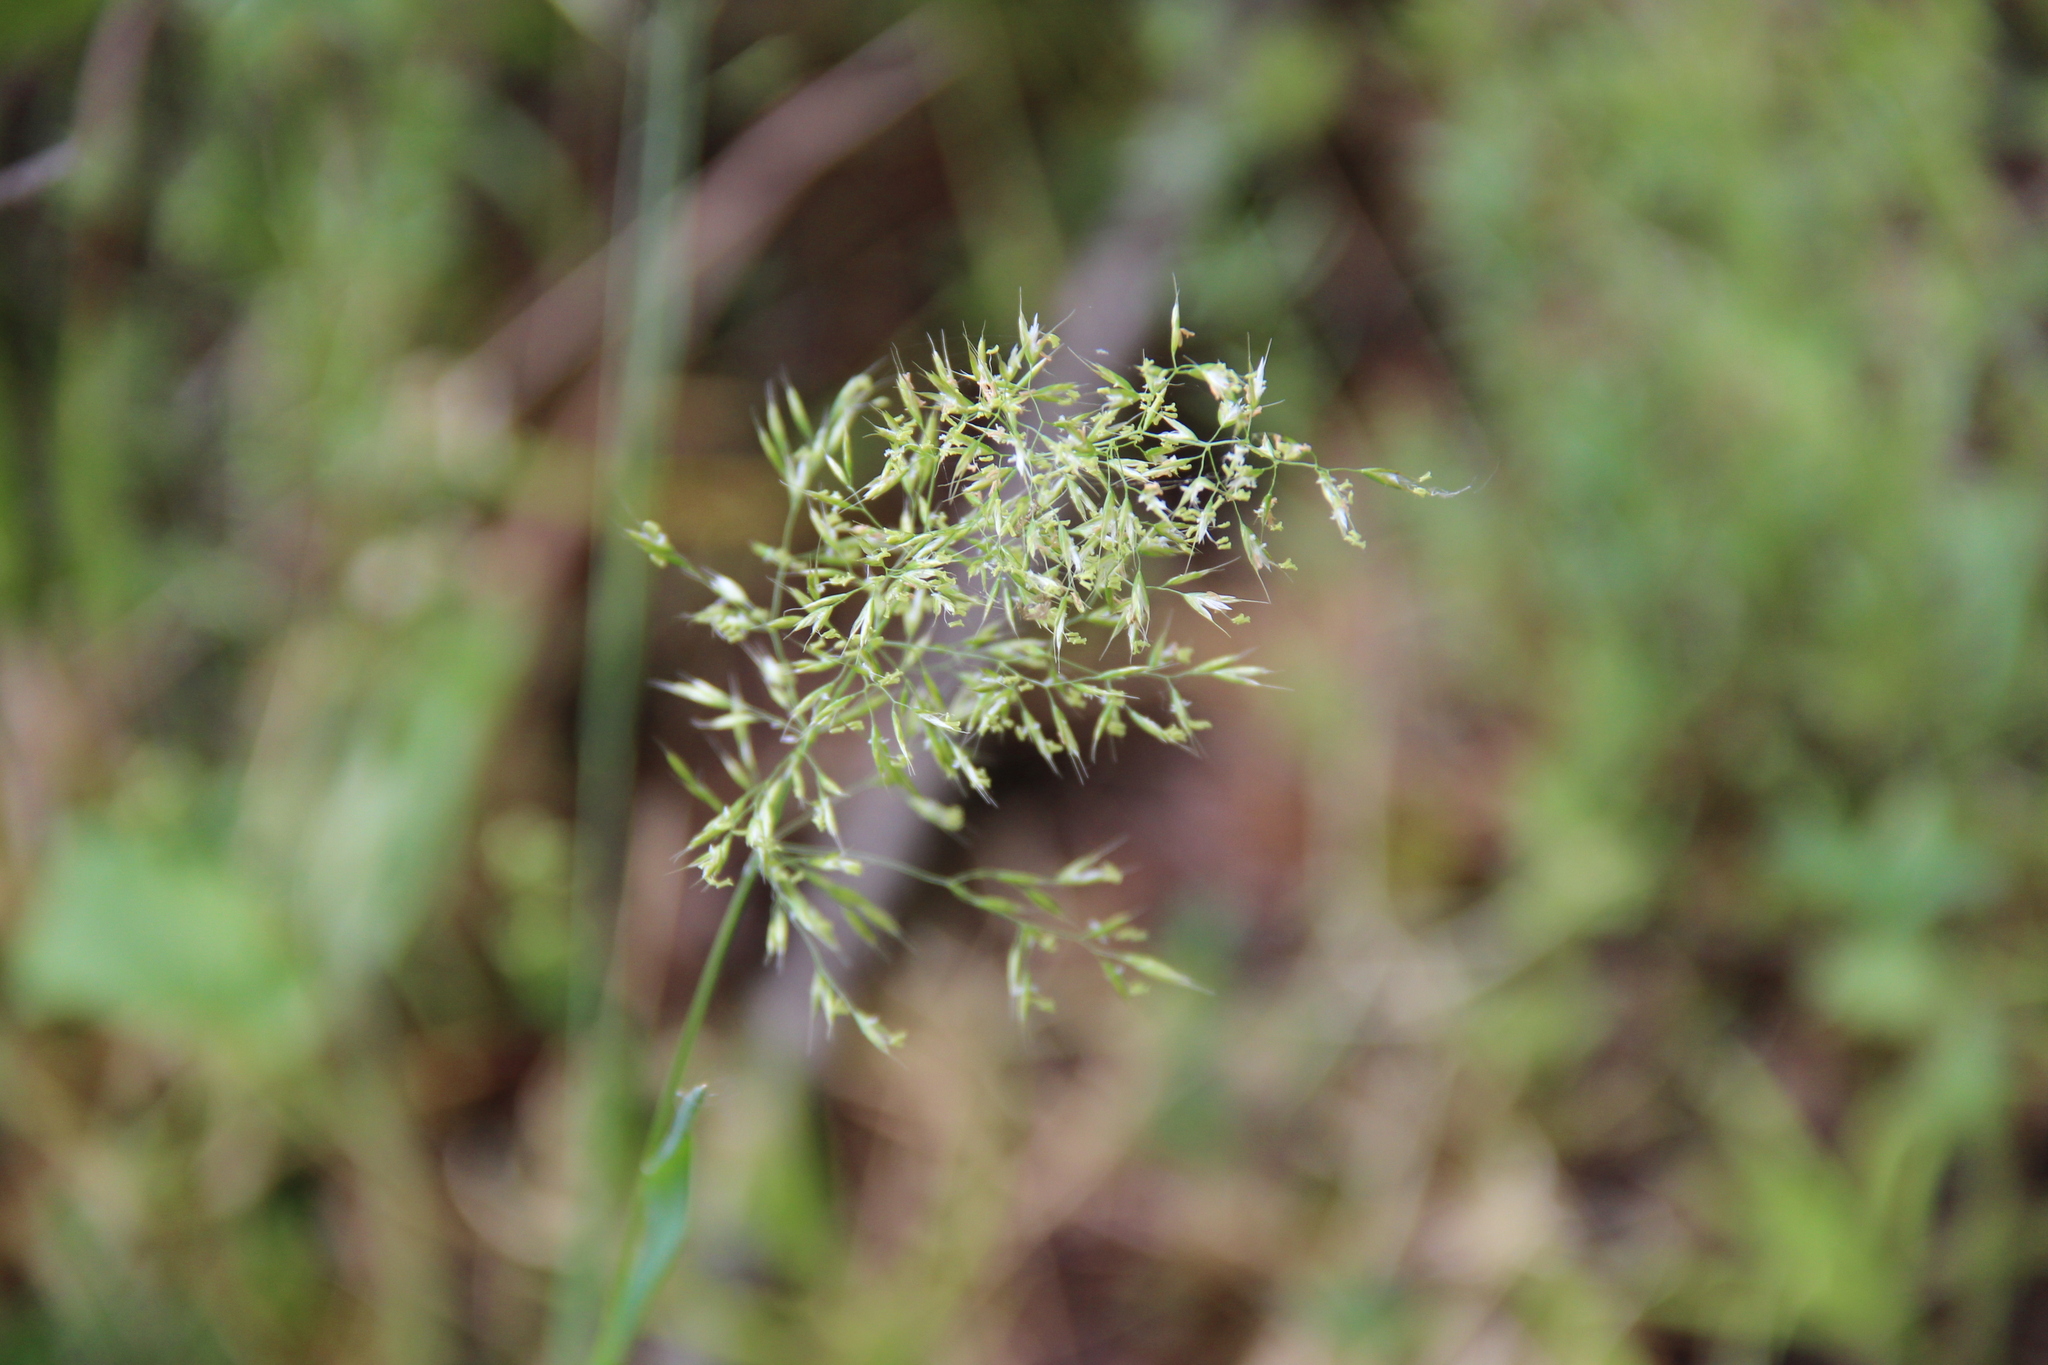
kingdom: Plantae
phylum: Tracheophyta
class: Liliopsida
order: Poales
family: Poaceae
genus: Trisetum
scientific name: Trisetum flavescens
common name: Yellow oat-grass
